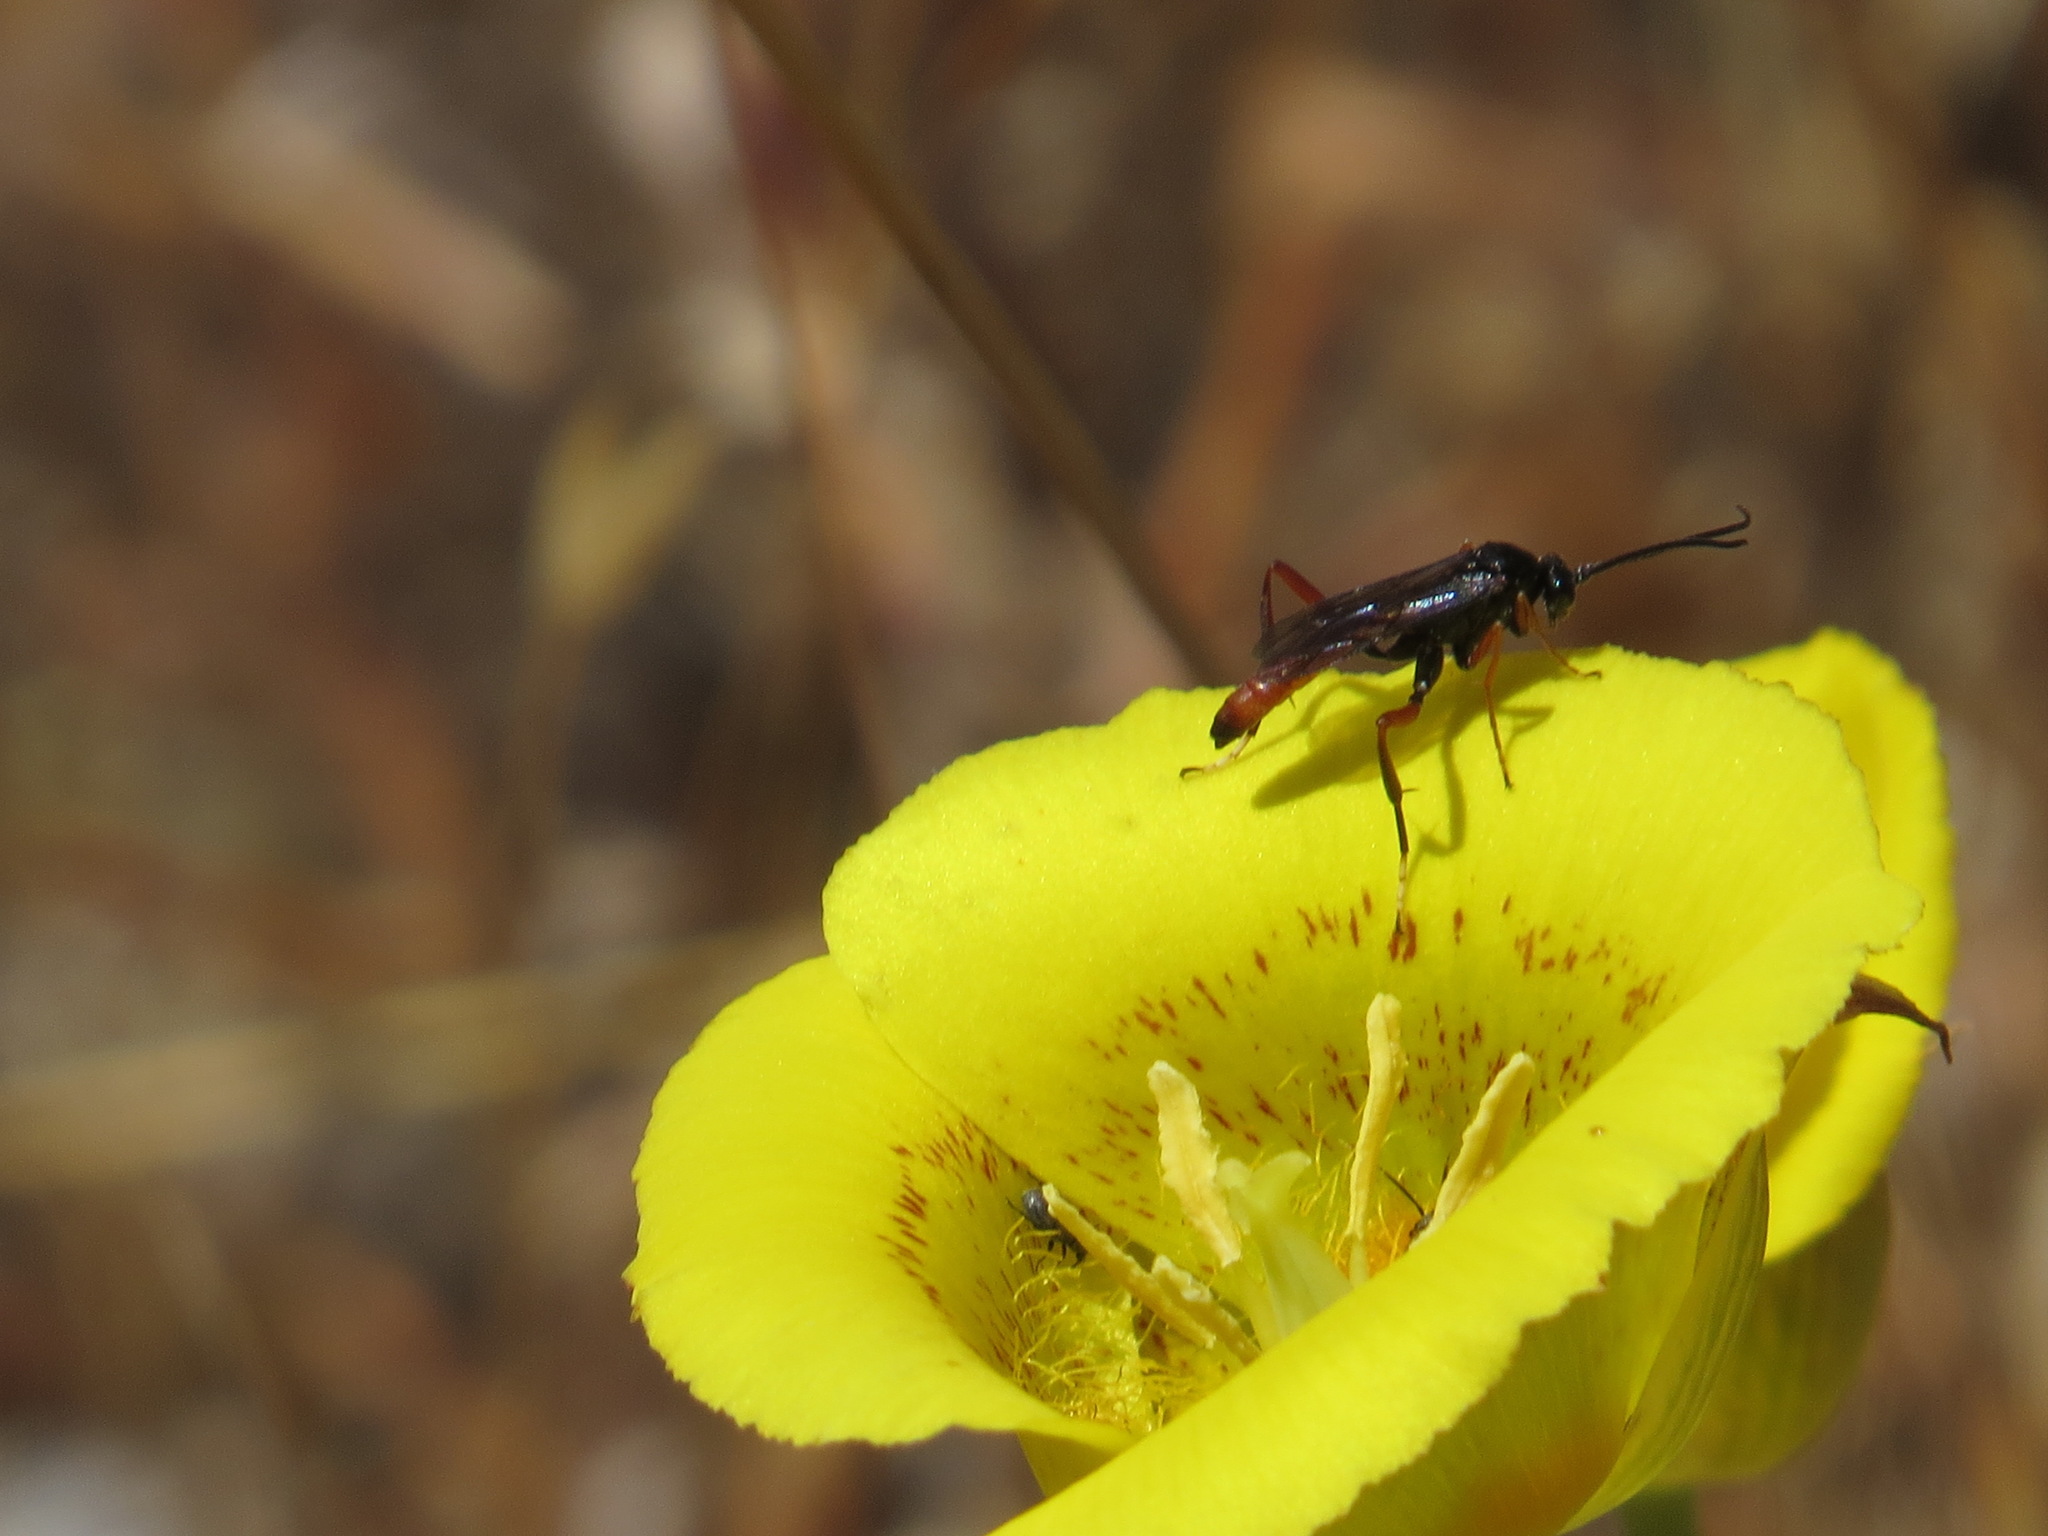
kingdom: Plantae
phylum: Tracheophyta
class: Liliopsida
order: Liliales
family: Liliaceae
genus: Calochortus
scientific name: Calochortus luteus
